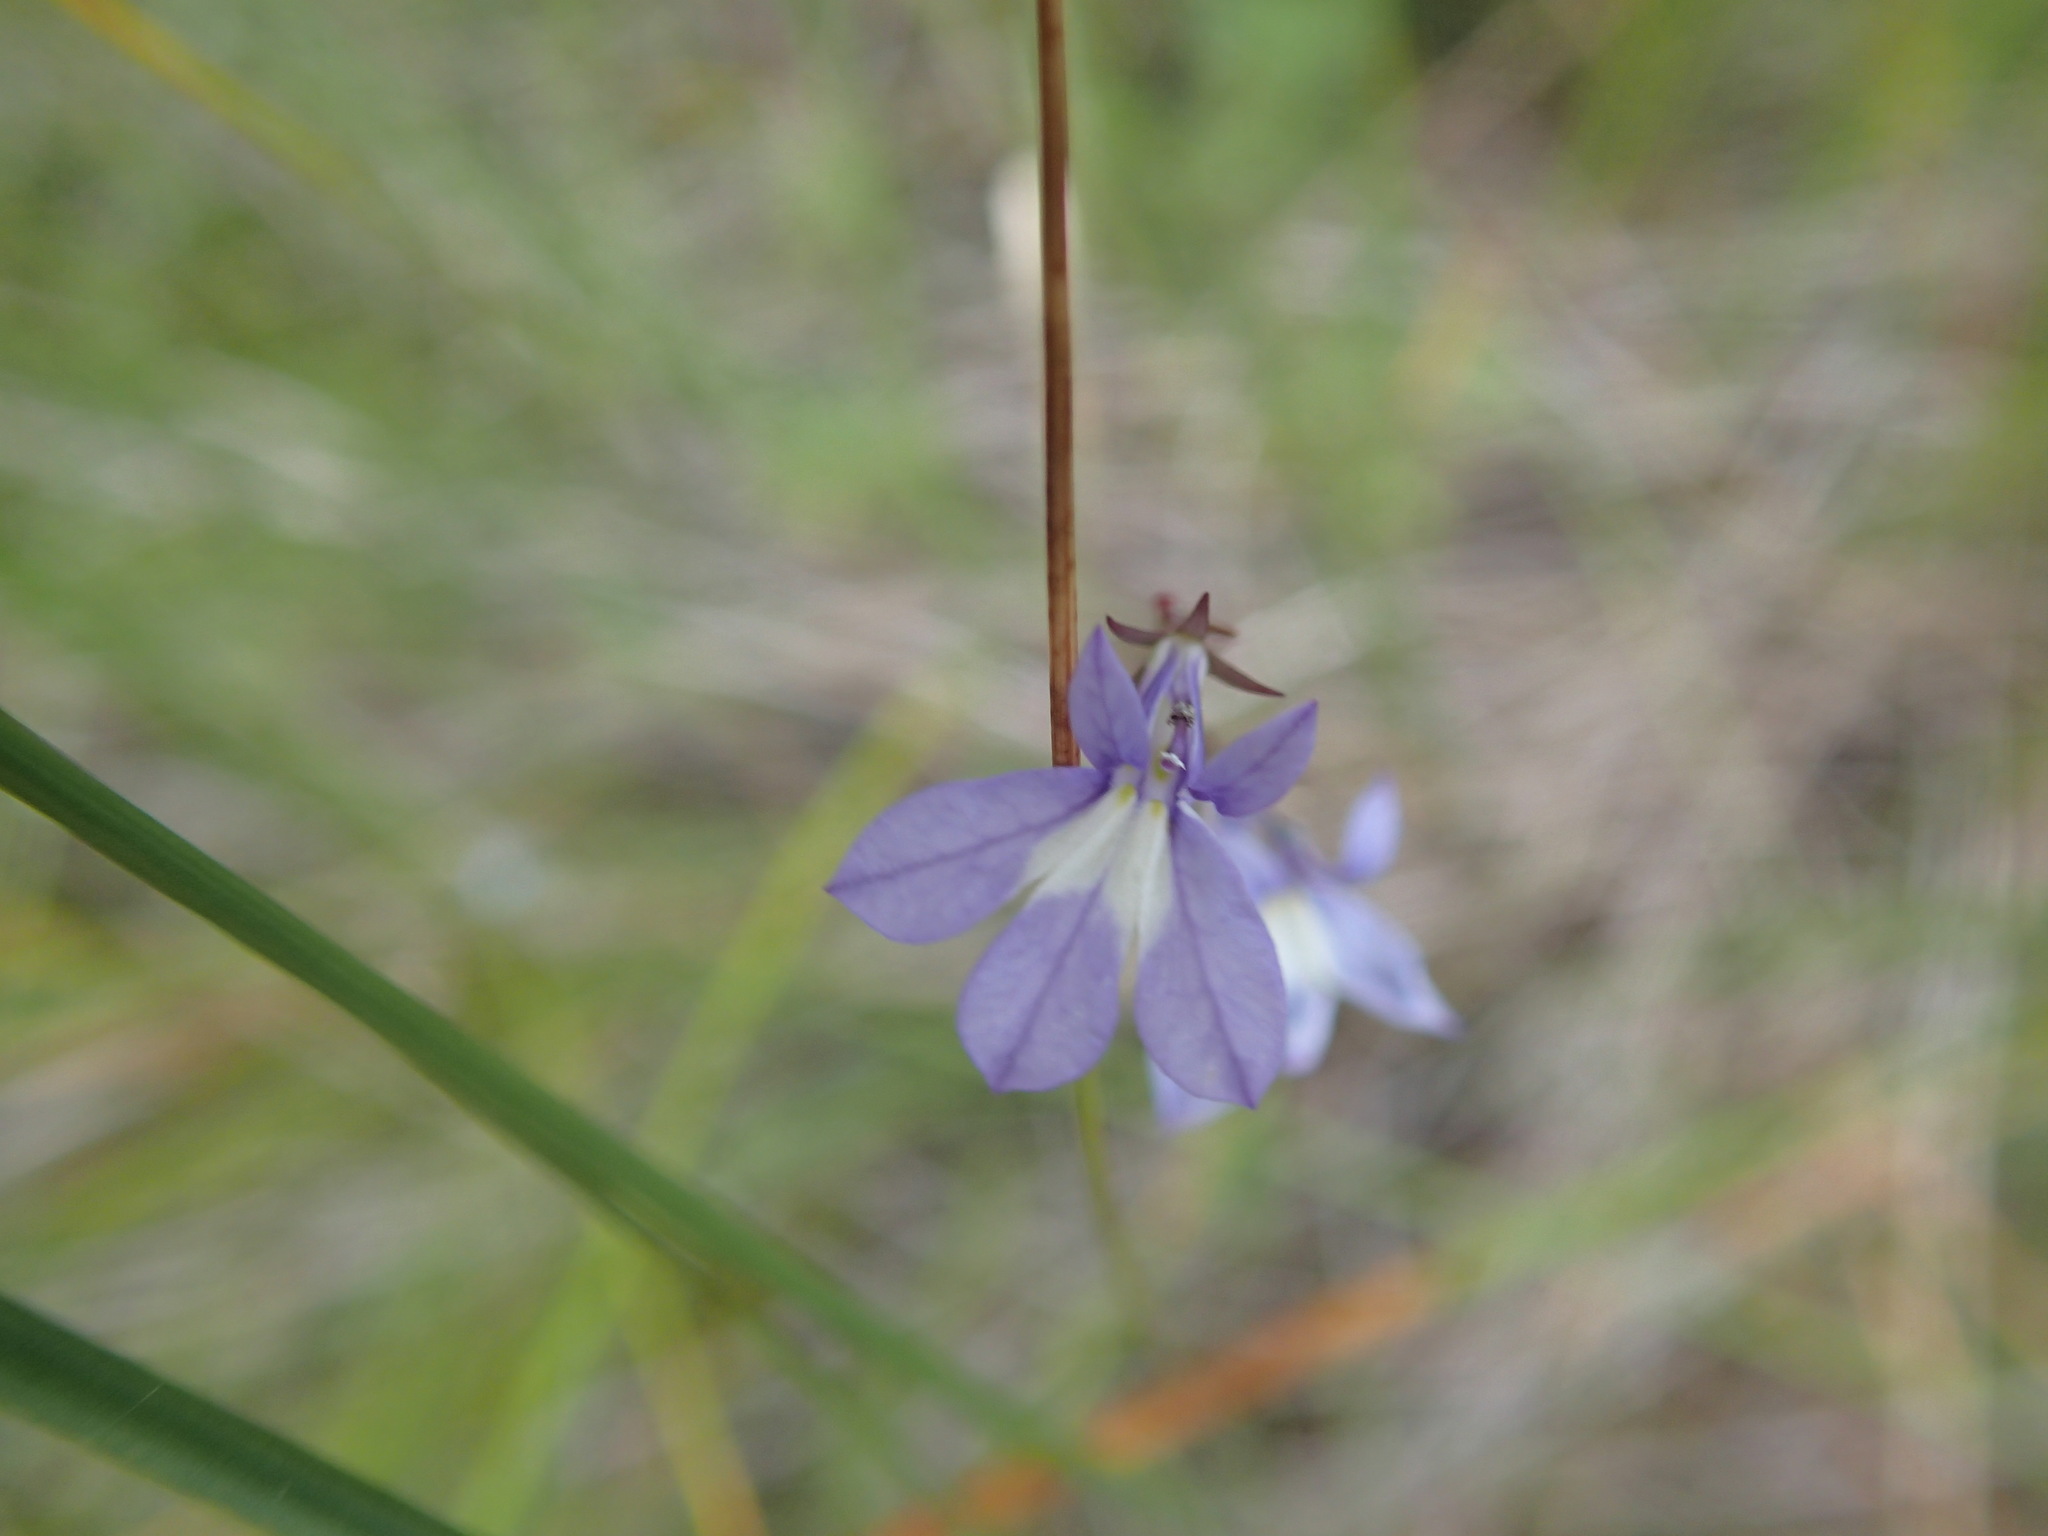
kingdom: Plantae
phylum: Tracheophyta
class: Magnoliopsida
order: Asterales
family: Campanulaceae
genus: Lobelia
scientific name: Lobelia kalmii
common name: Kalm's lobelia
